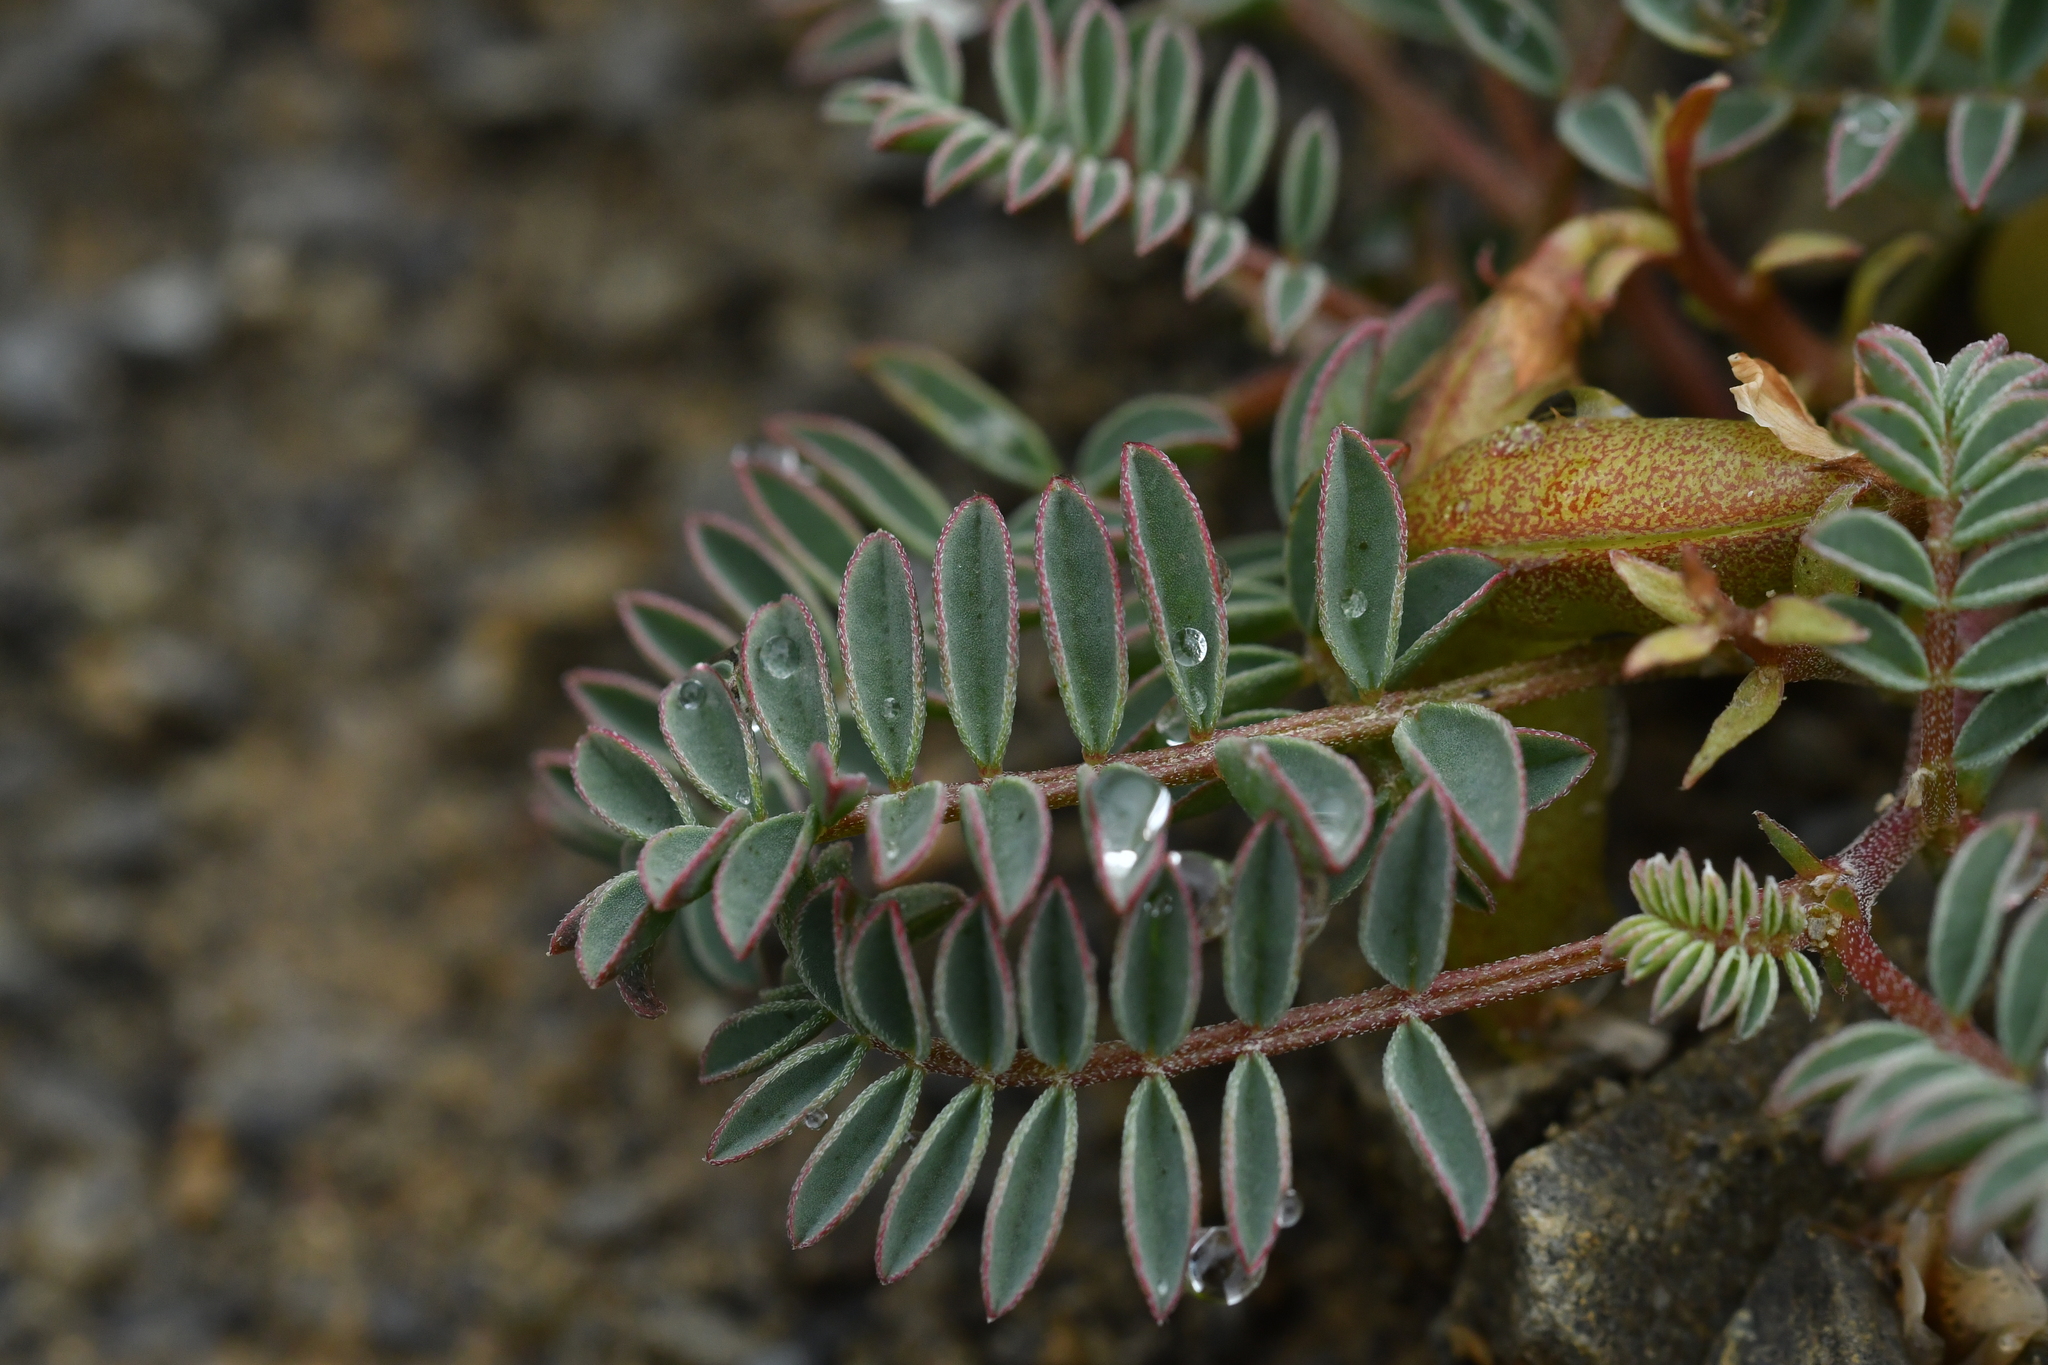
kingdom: Plantae
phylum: Tracheophyta
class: Magnoliopsida
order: Fabales
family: Fabaceae
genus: Montigena
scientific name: Montigena novae-zelandiae
